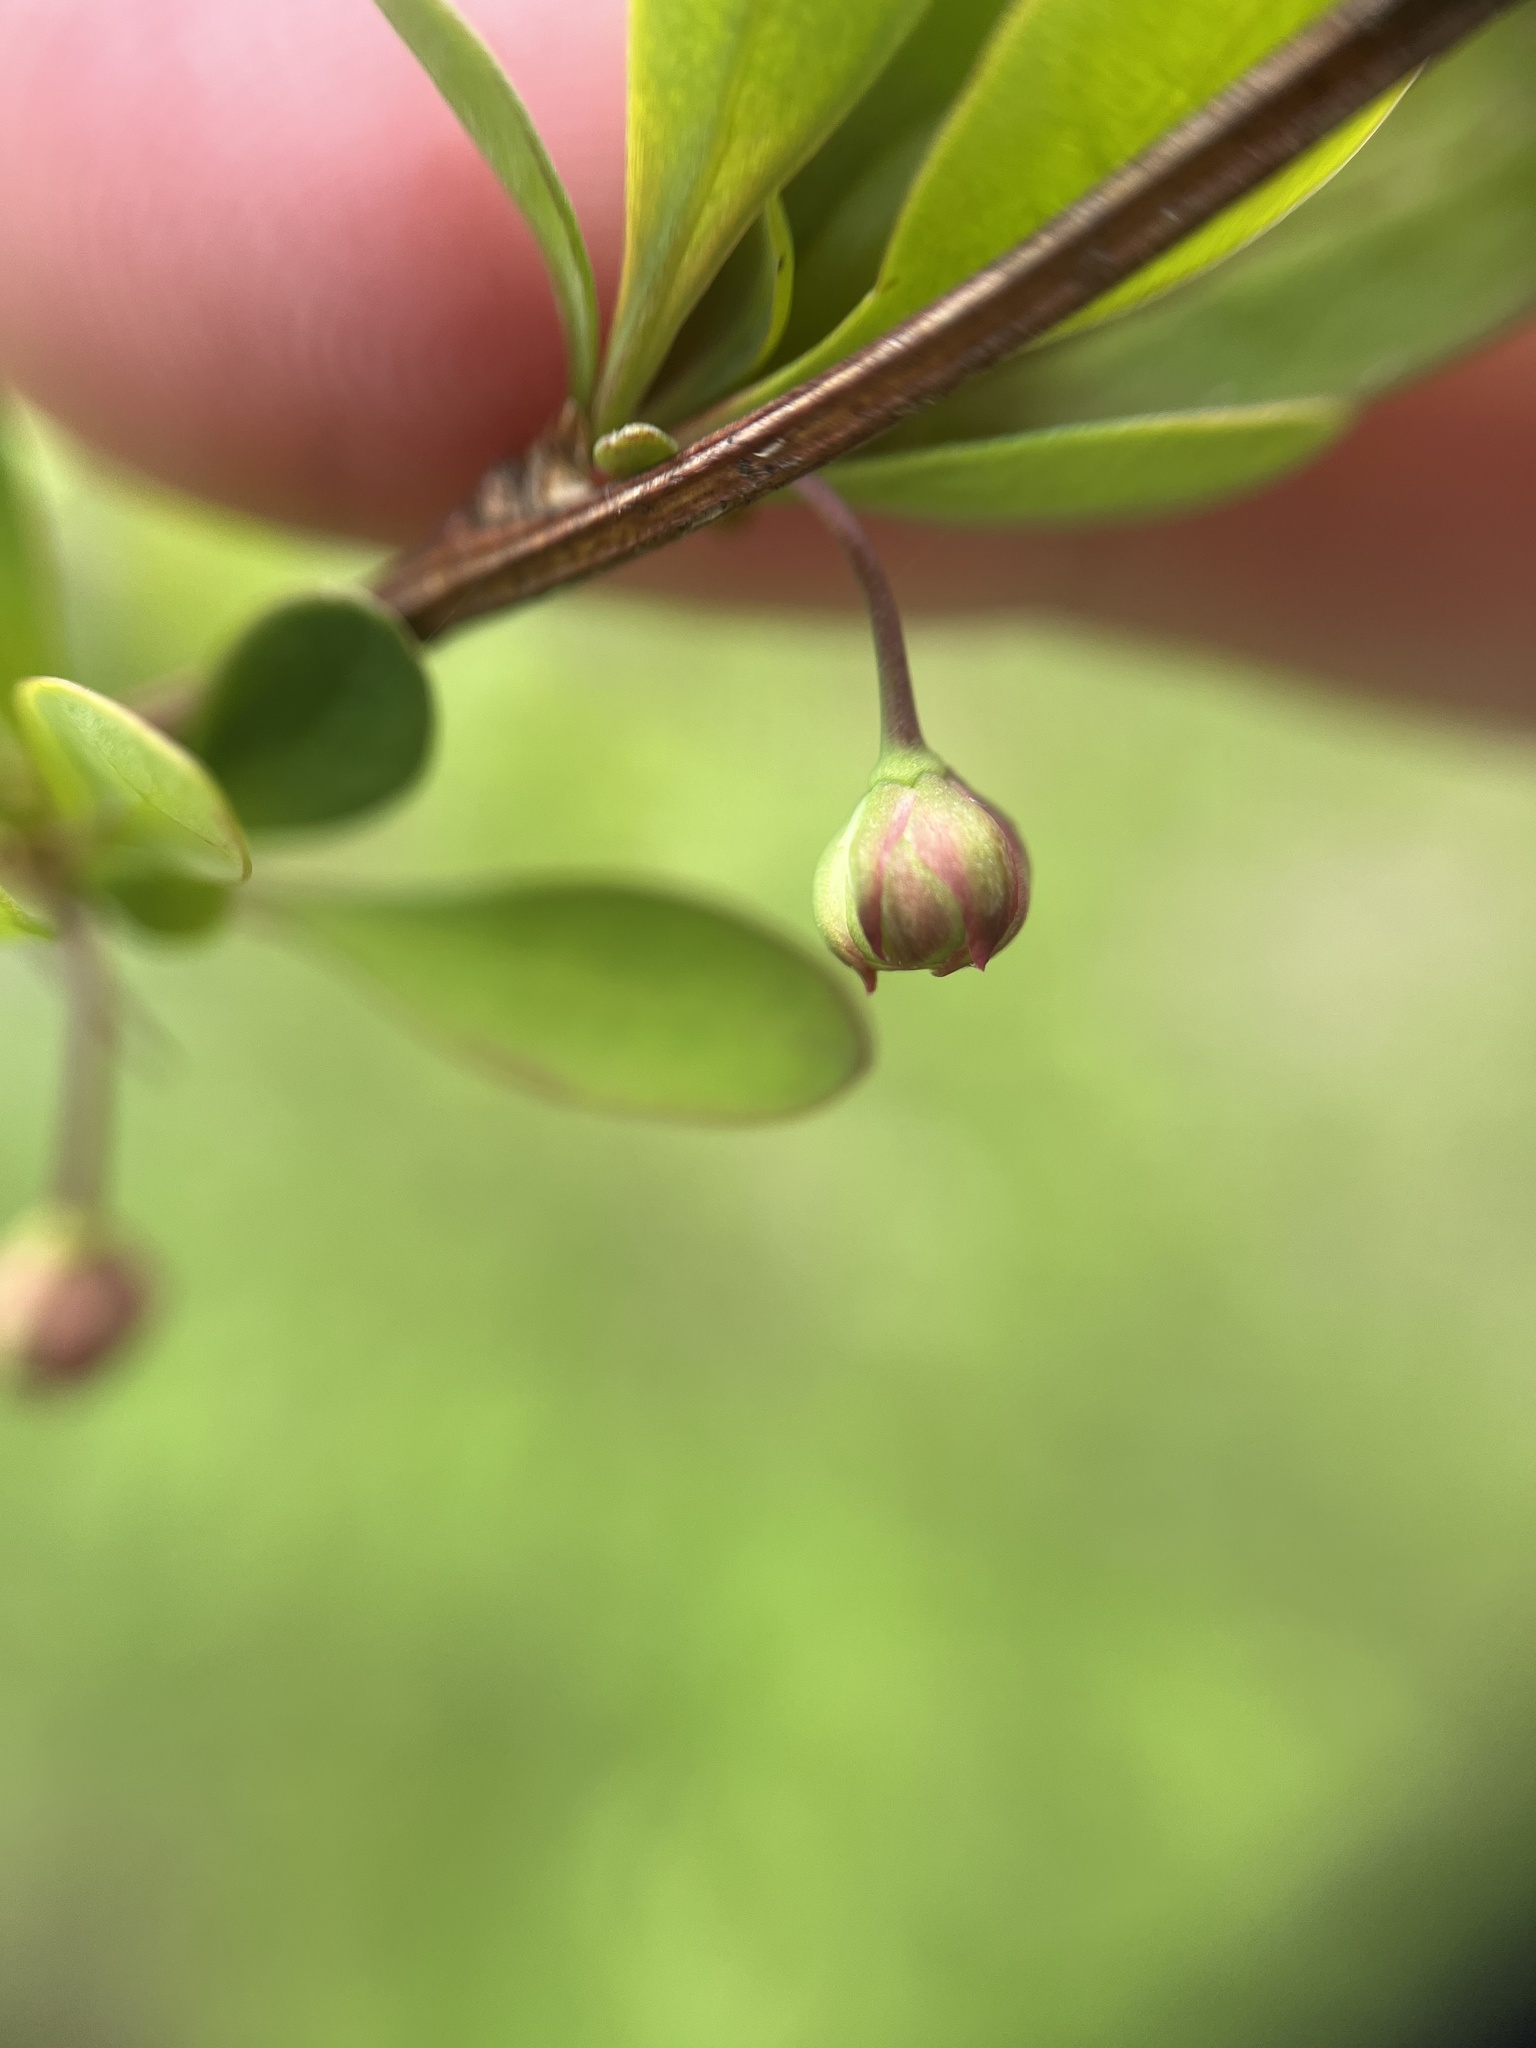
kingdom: Plantae
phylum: Tracheophyta
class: Magnoliopsida
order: Ranunculales
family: Berberidaceae
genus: Berberis
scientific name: Berberis thunbergii
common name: Japanese barberry
